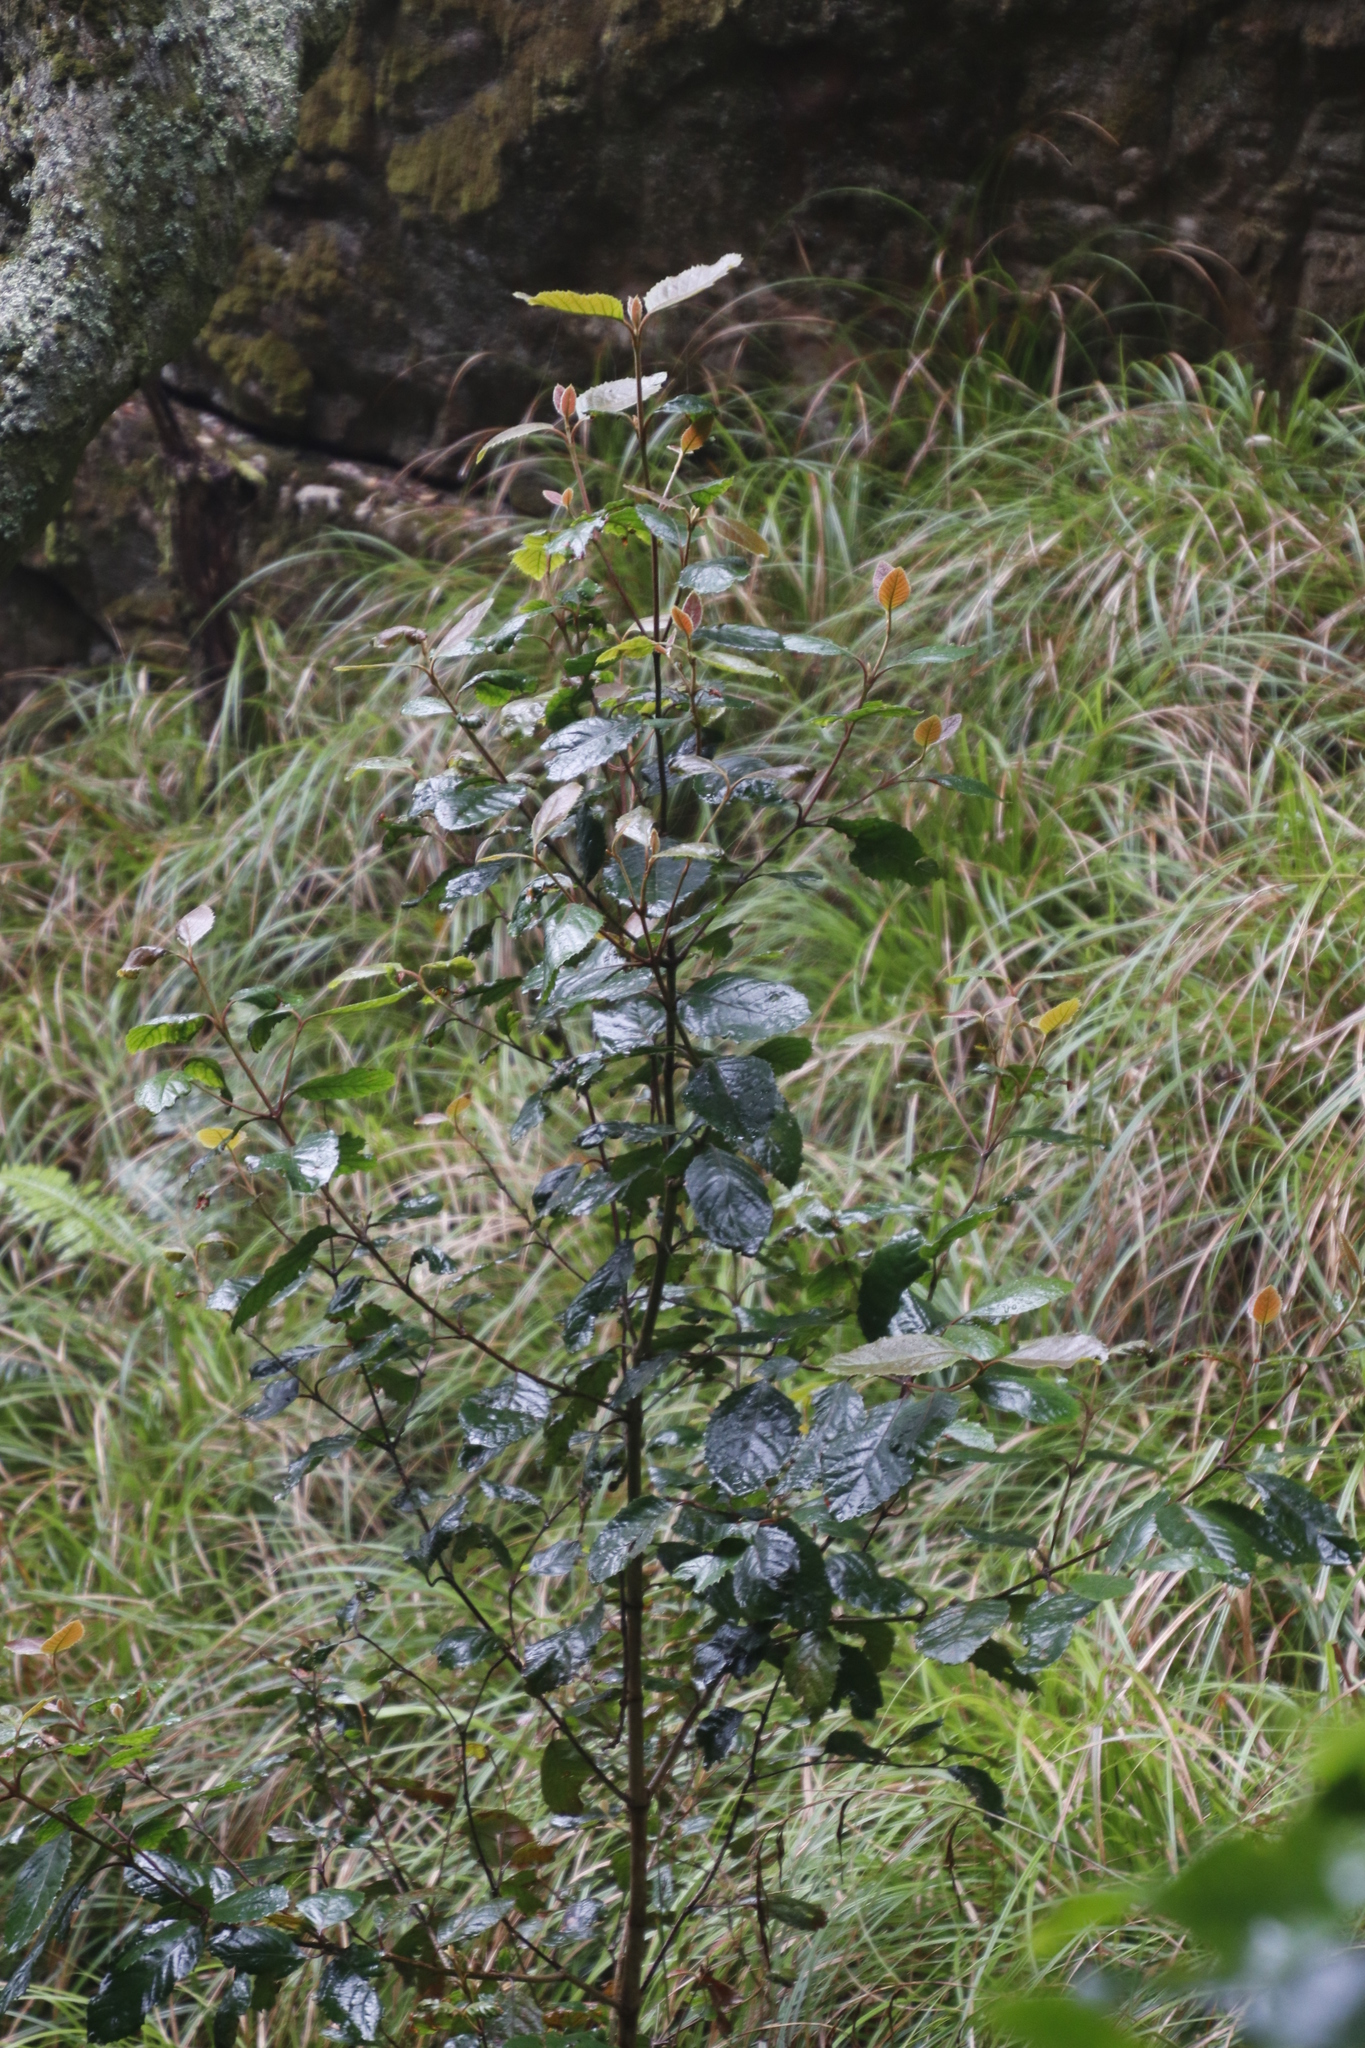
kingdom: Plantae
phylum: Tracheophyta
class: Magnoliopsida
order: Cornales
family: Curtisiaceae
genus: Curtisia
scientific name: Curtisia dentata
